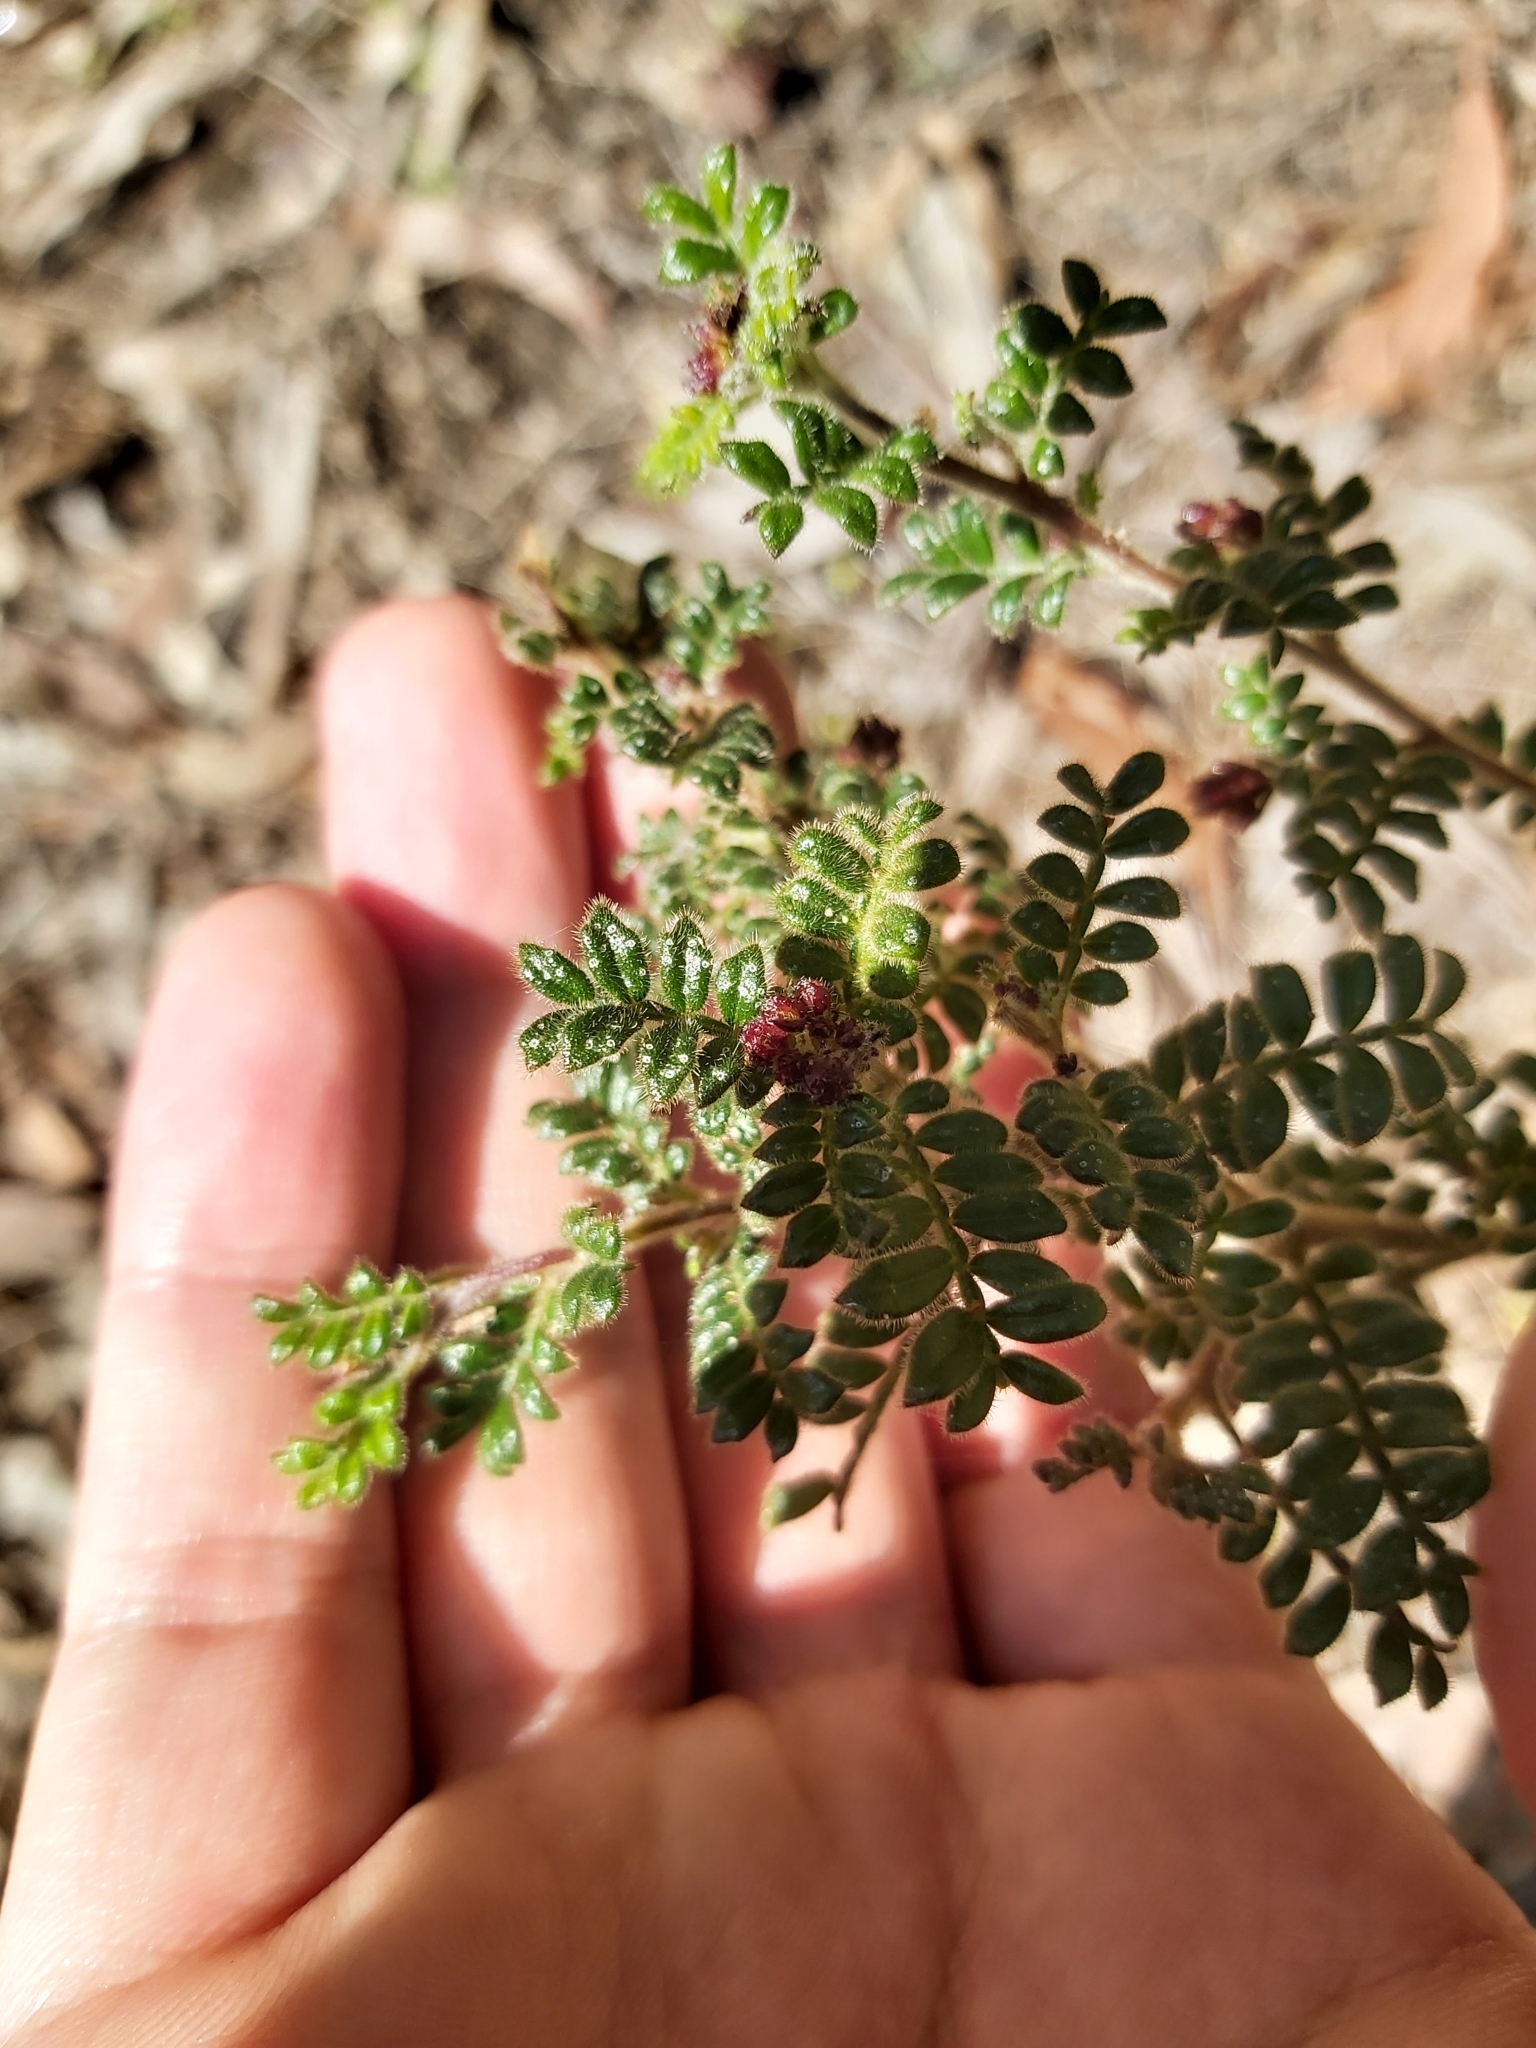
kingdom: Plantae
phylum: Tracheophyta
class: Magnoliopsida
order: Sapindales
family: Sapindaceae
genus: Dodonaea
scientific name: Dodonaea pinnata
